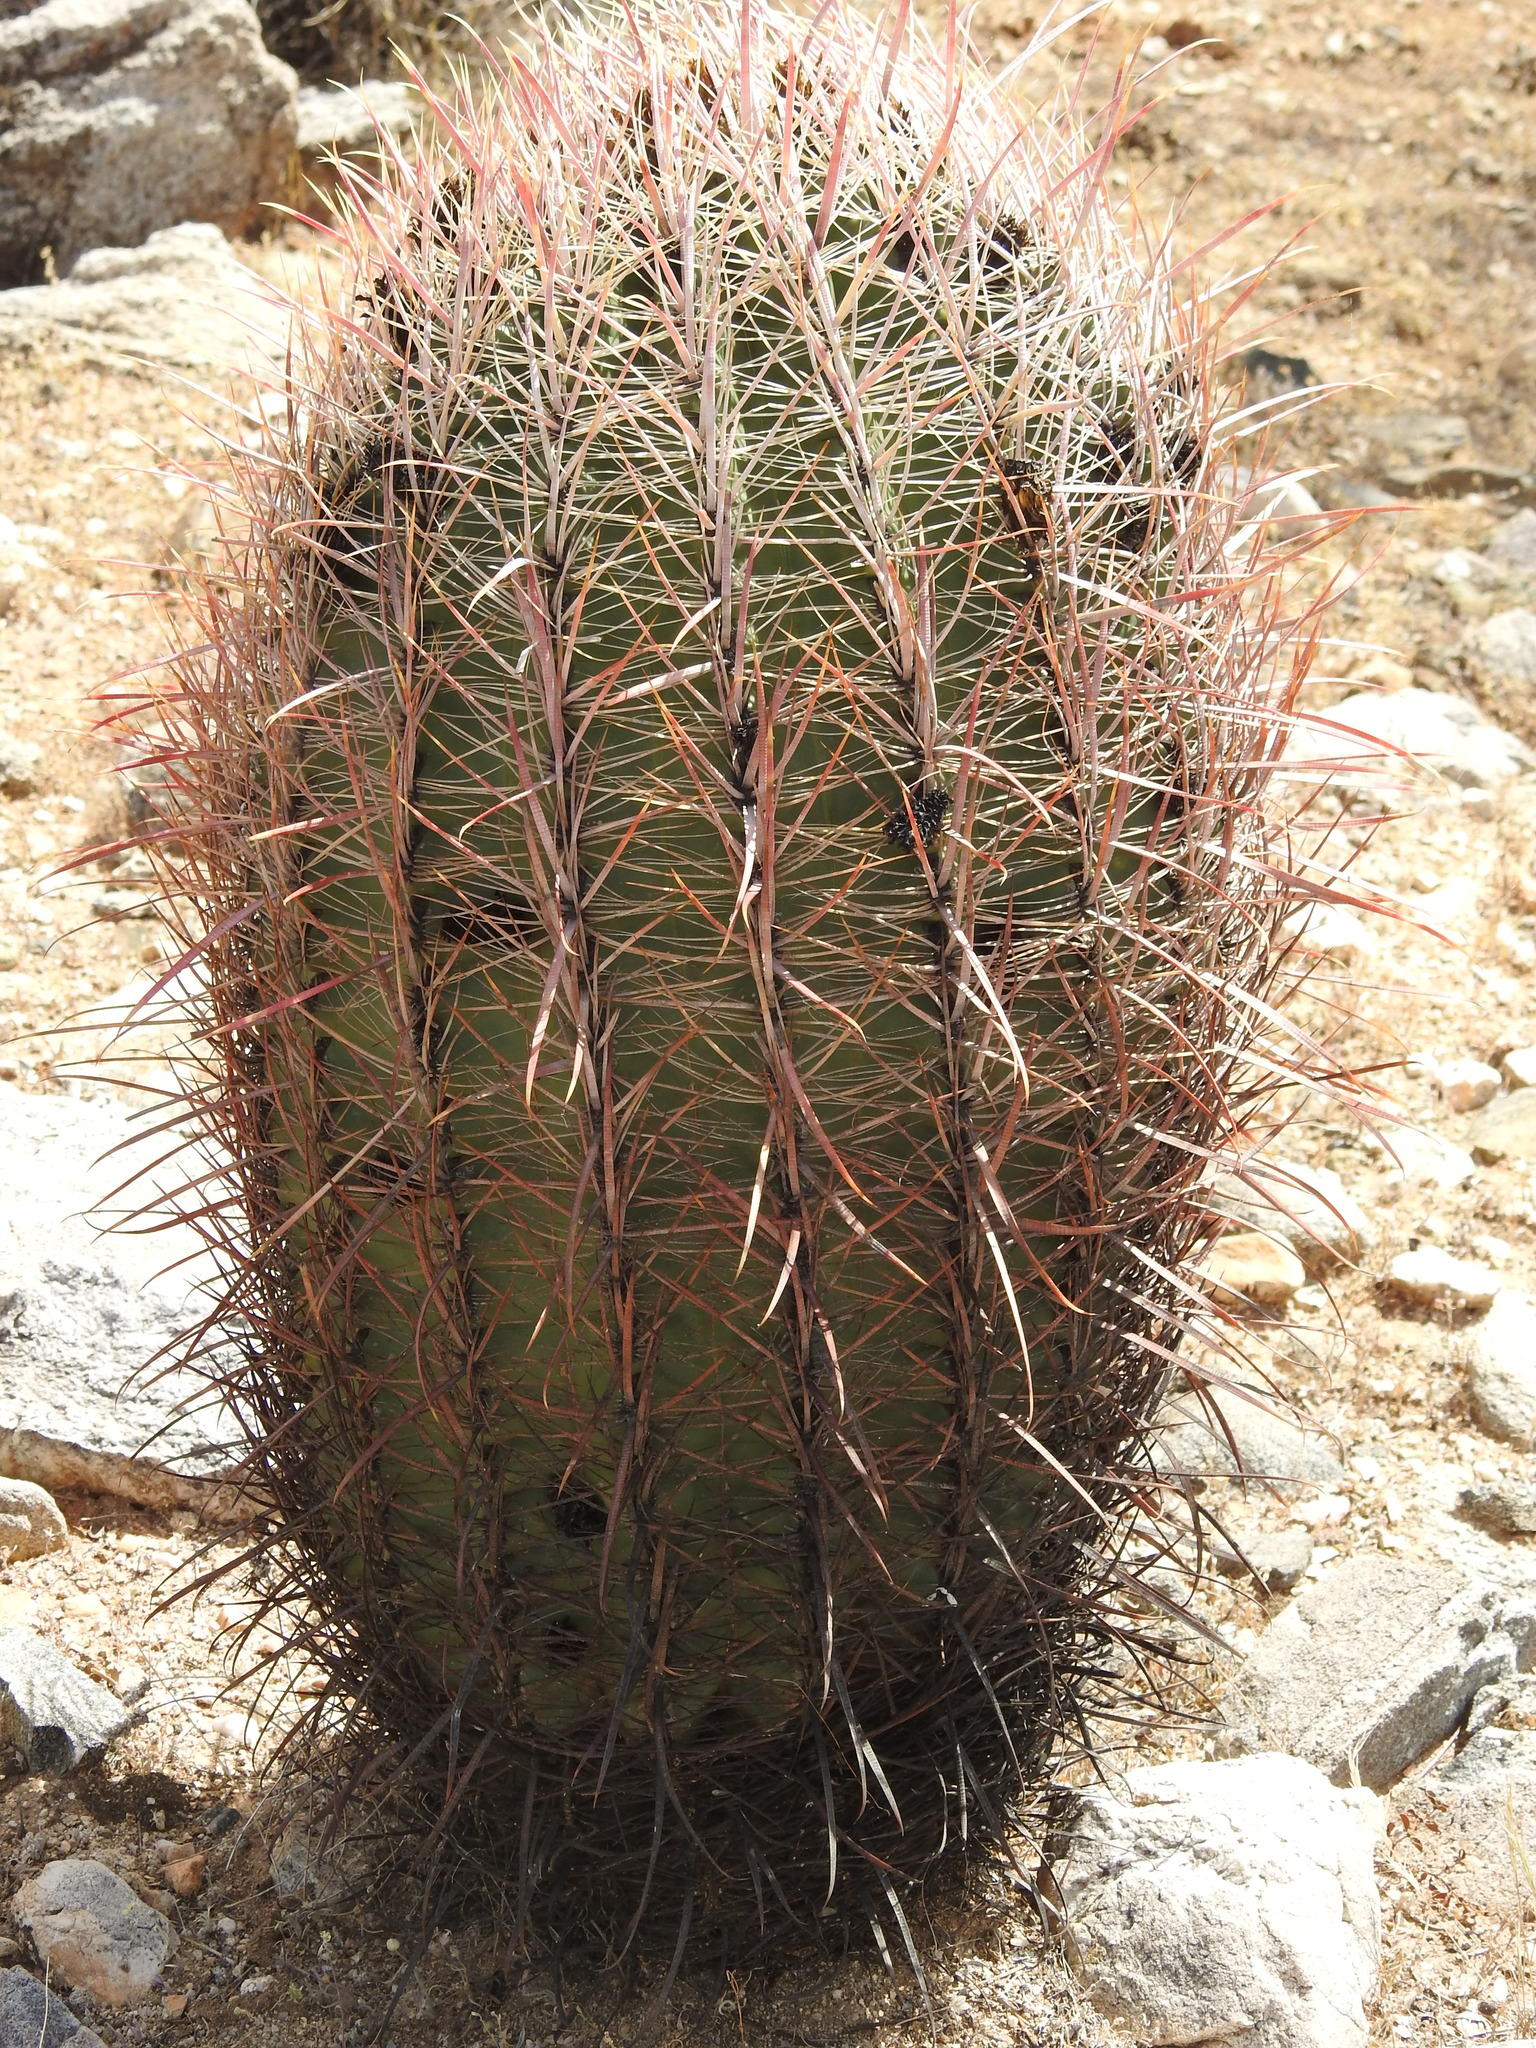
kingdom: Plantae
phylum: Tracheophyta
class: Magnoliopsida
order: Caryophyllales
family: Cactaceae
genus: Ferocactus
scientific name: Ferocactus cylindraceus
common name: California barrel cactus
